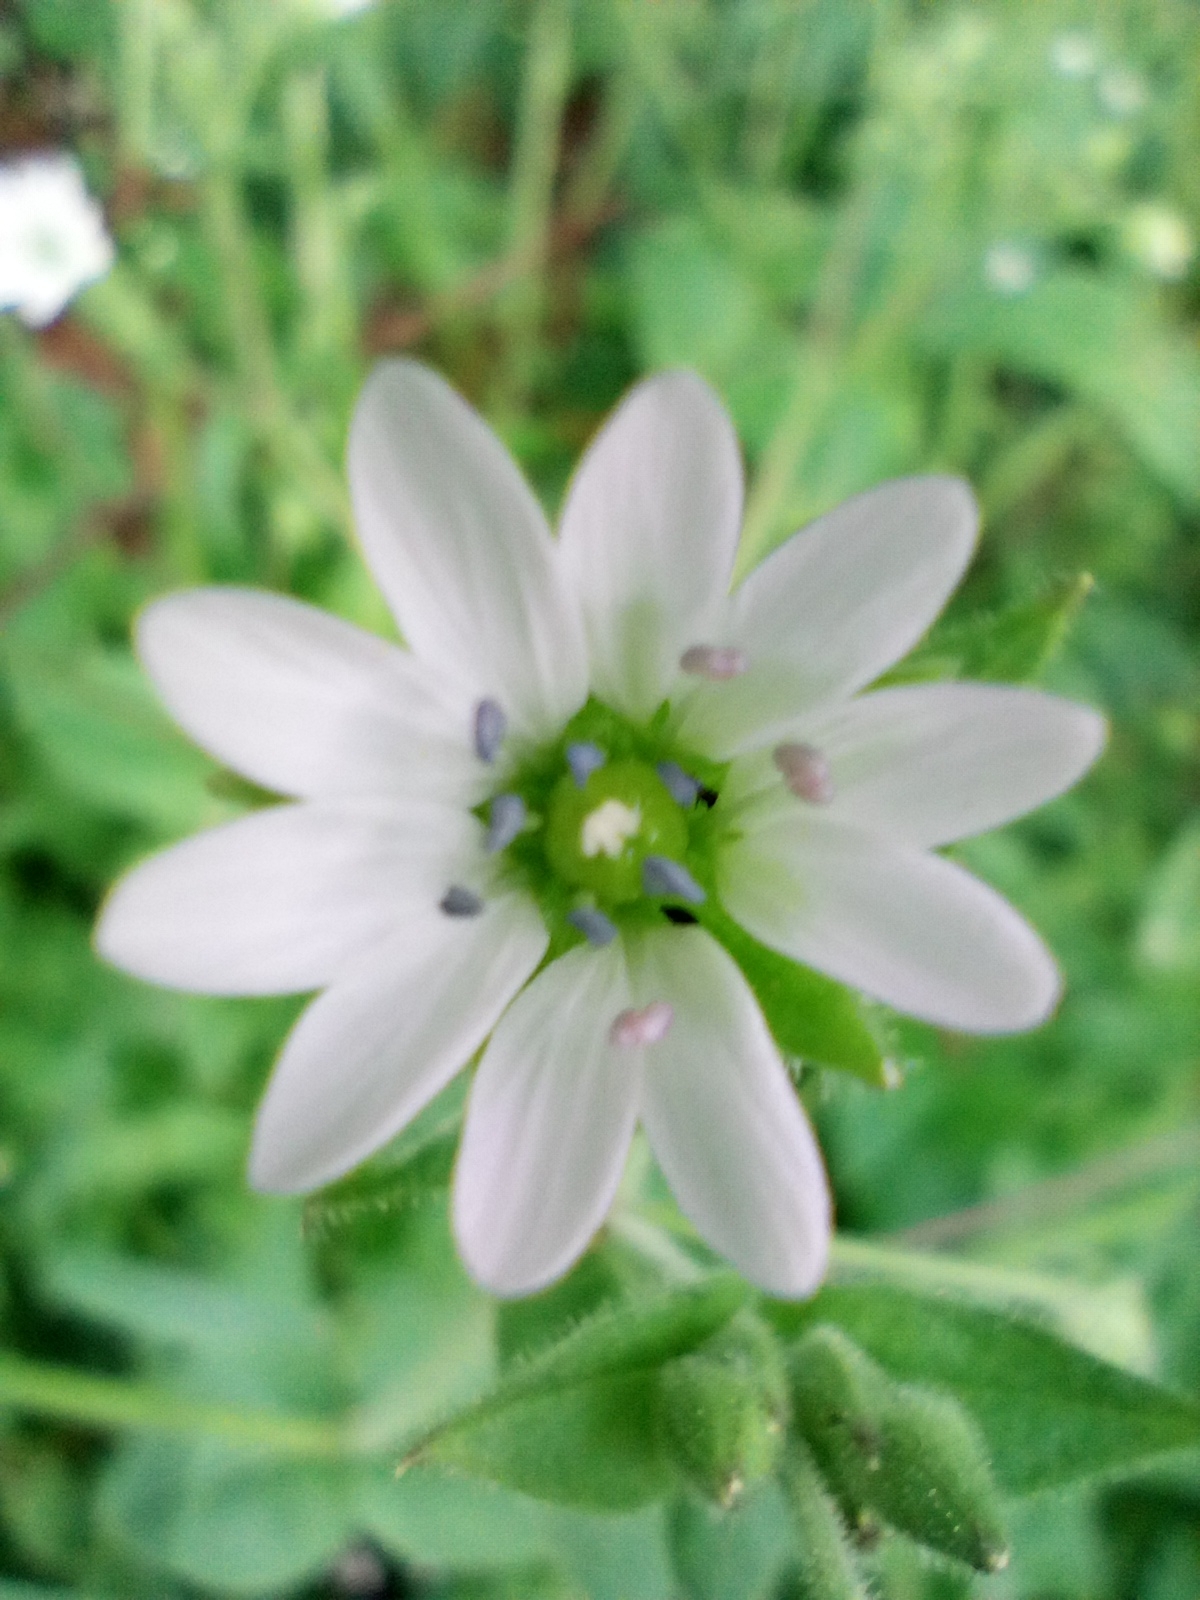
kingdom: Plantae
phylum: Tracheophyta
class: Magnoliopsida
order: Caryophyllales
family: Caryophyllaceae
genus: Stellaria
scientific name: Stellaria aquatica
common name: Water chickweed
